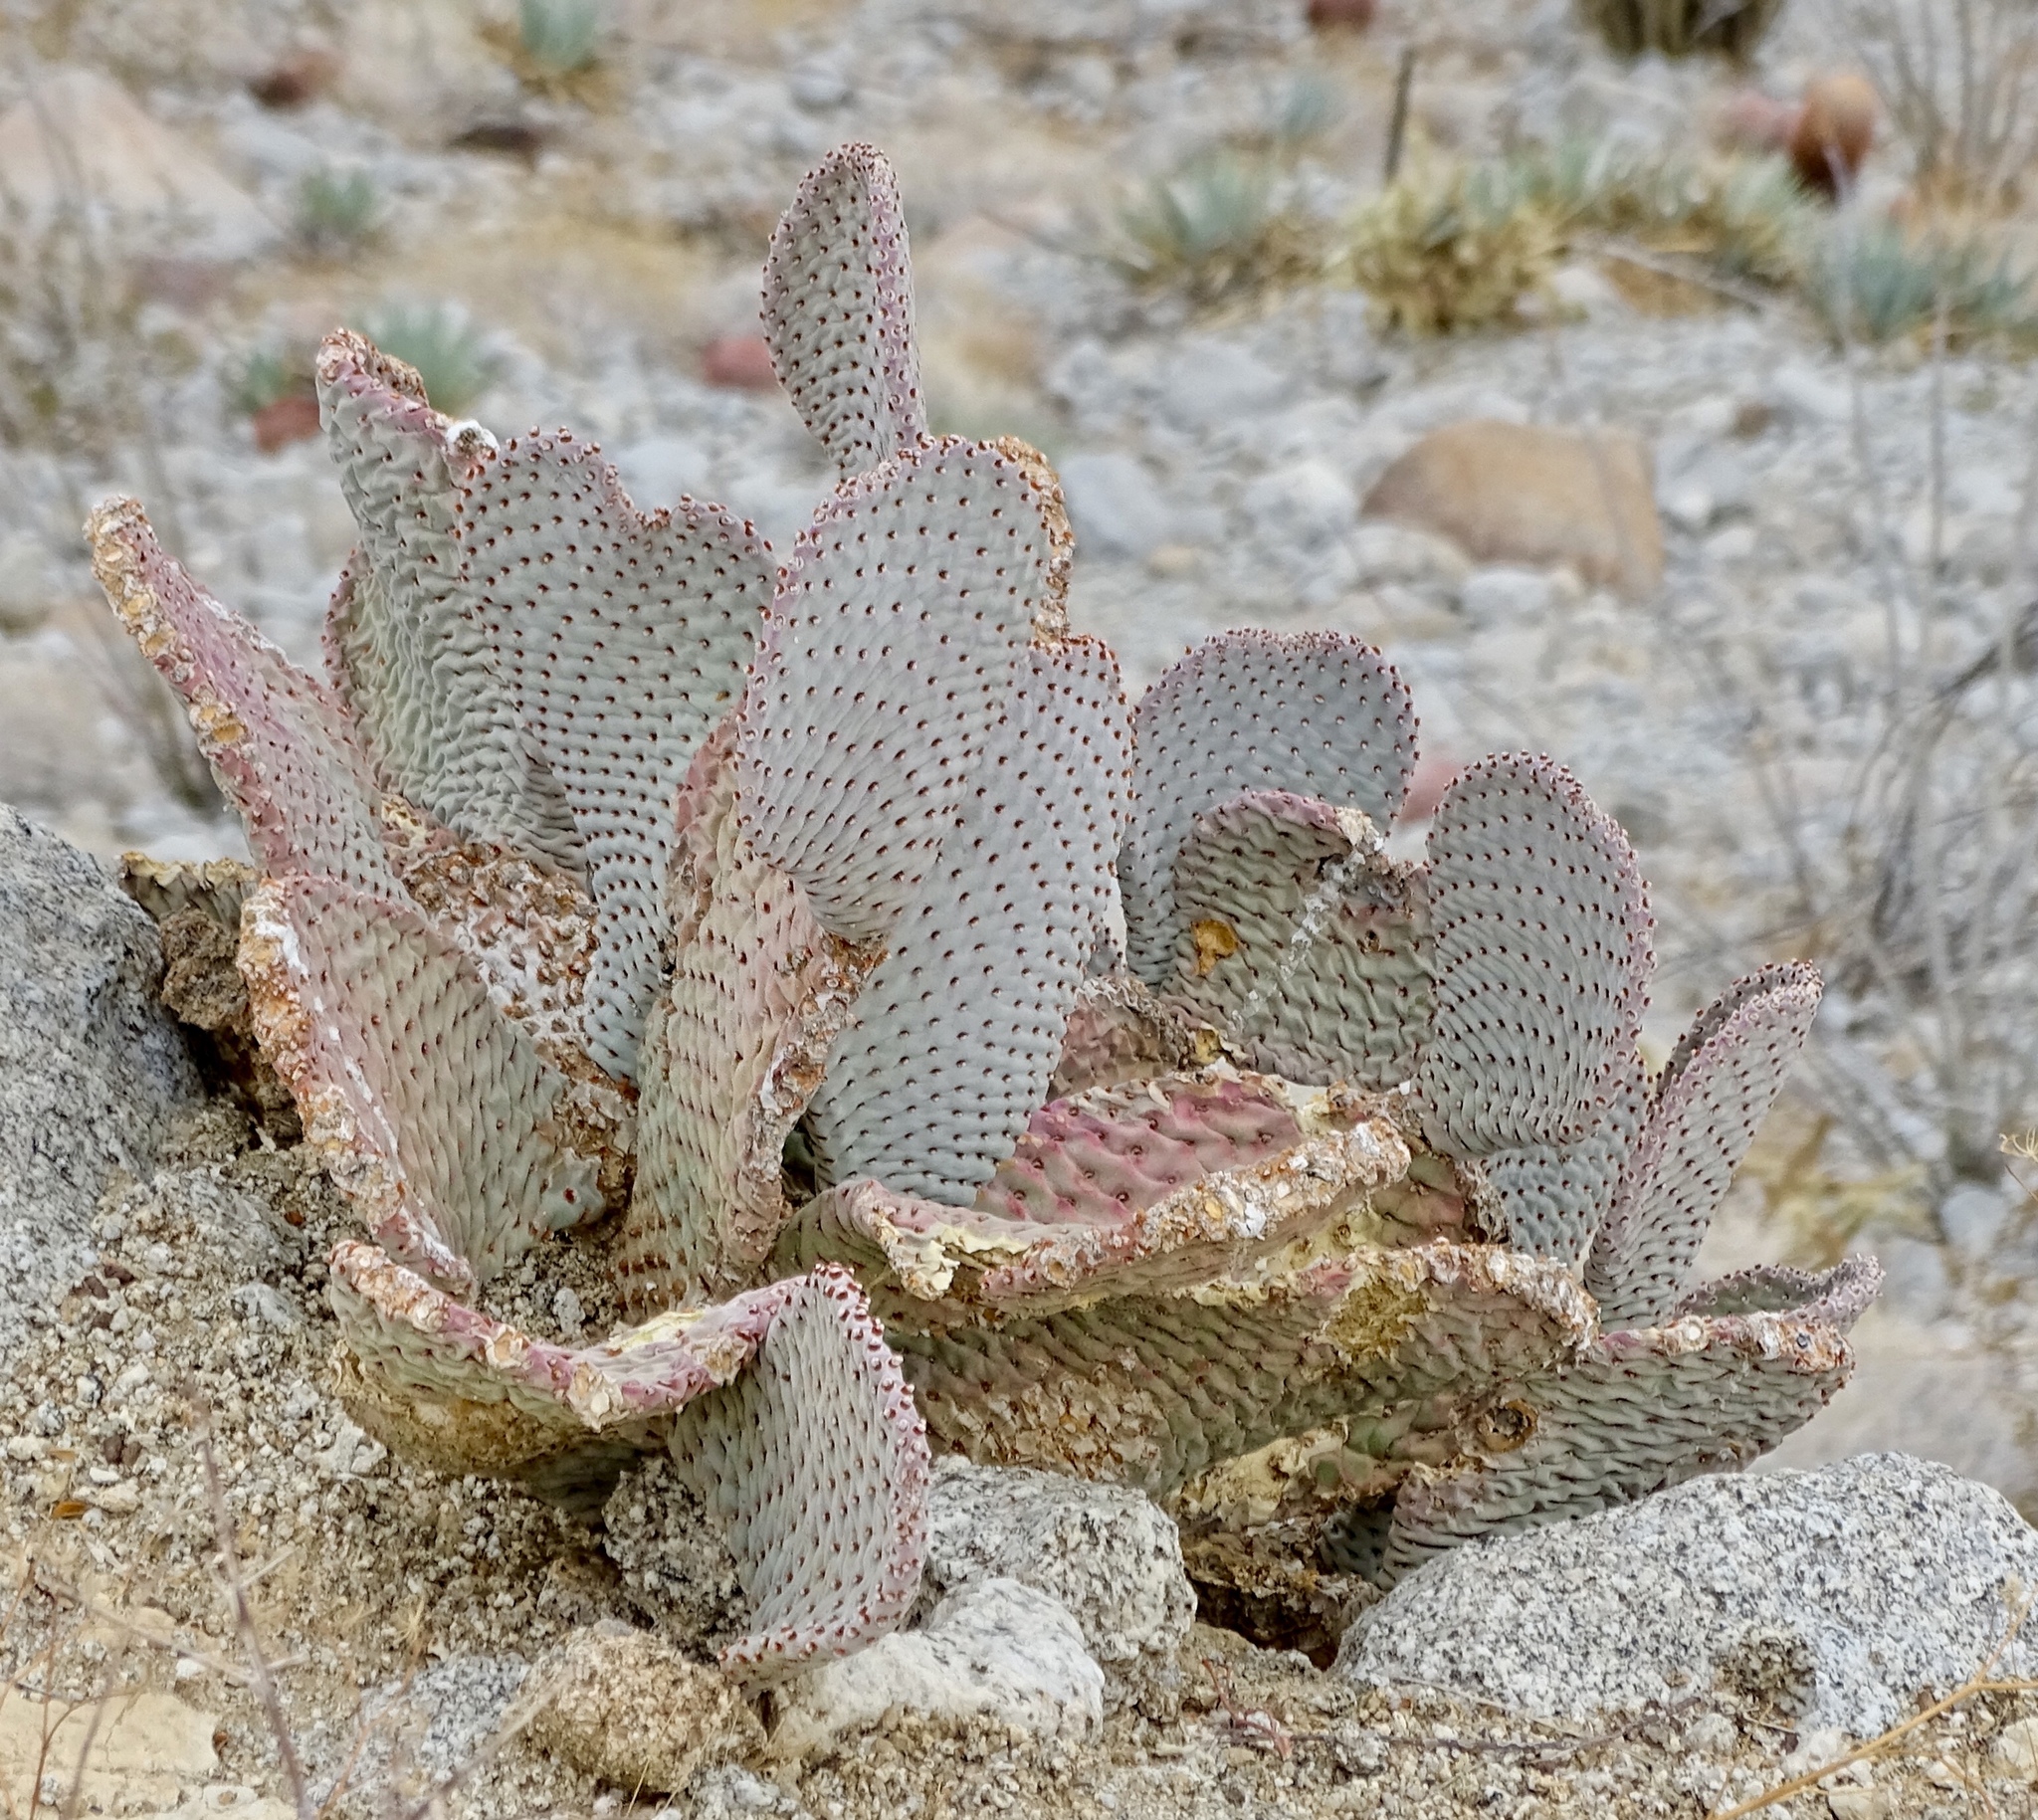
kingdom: Plantae
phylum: Tracheophyta
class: Magnoliopsida
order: Caryophyllales
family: Cactaceae
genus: Opuntia
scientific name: Opuntia basilaris
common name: Beavertail prickly-pear
